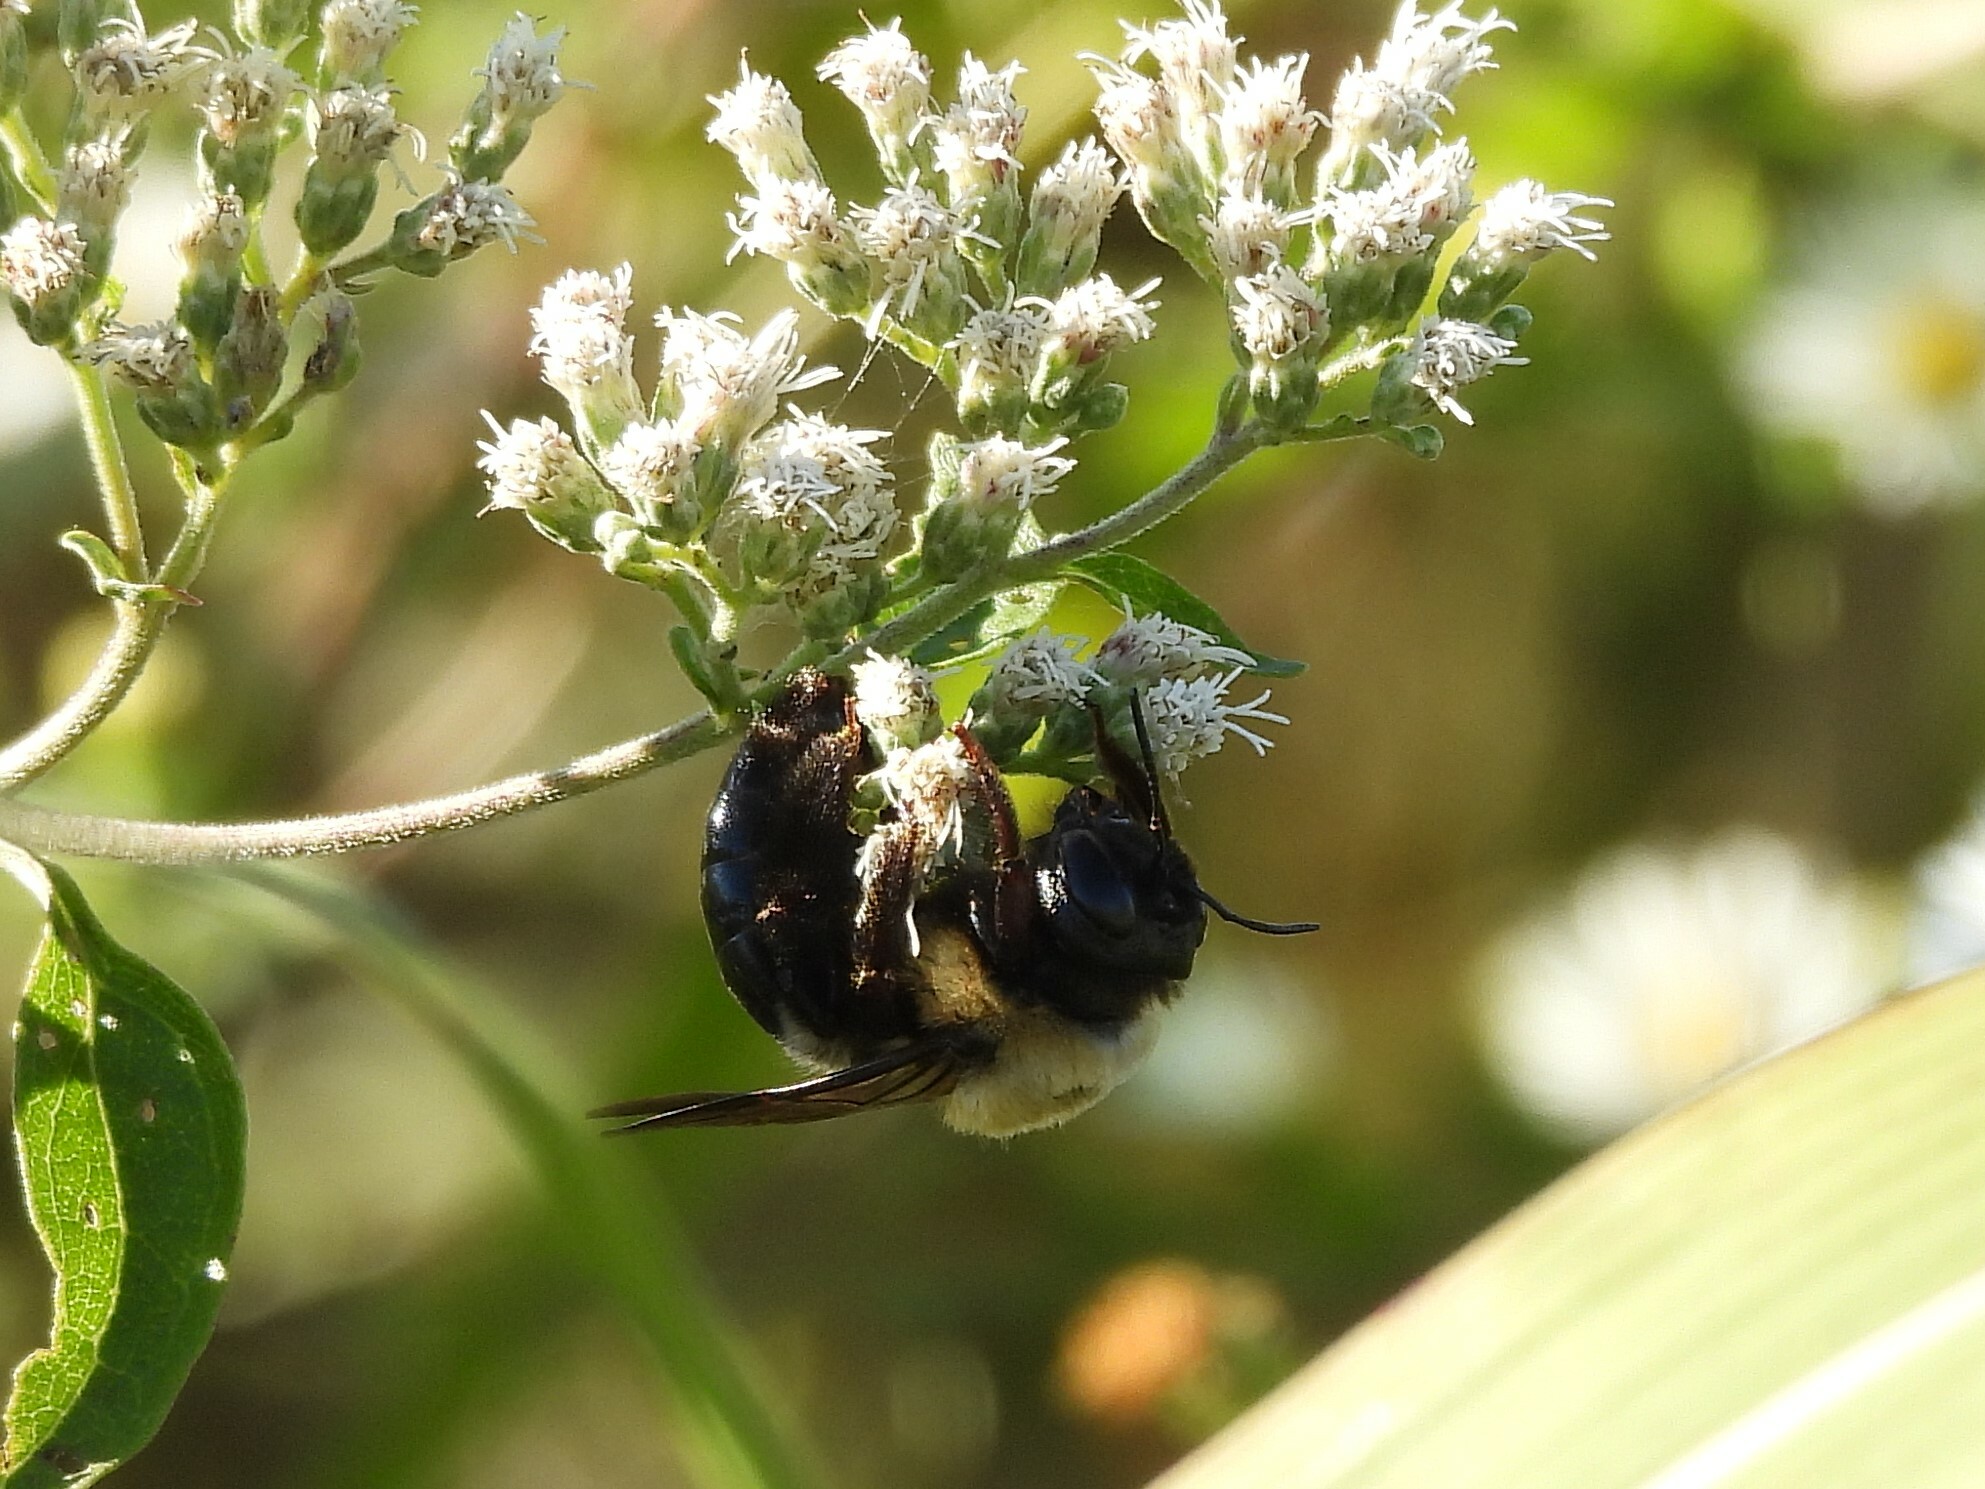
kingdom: Animalia
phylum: Arthropoda
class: Insecta
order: Hymenoptera
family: Apidae
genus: Xylocopa
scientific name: Xylocopa virginica
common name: Carpenter bee
